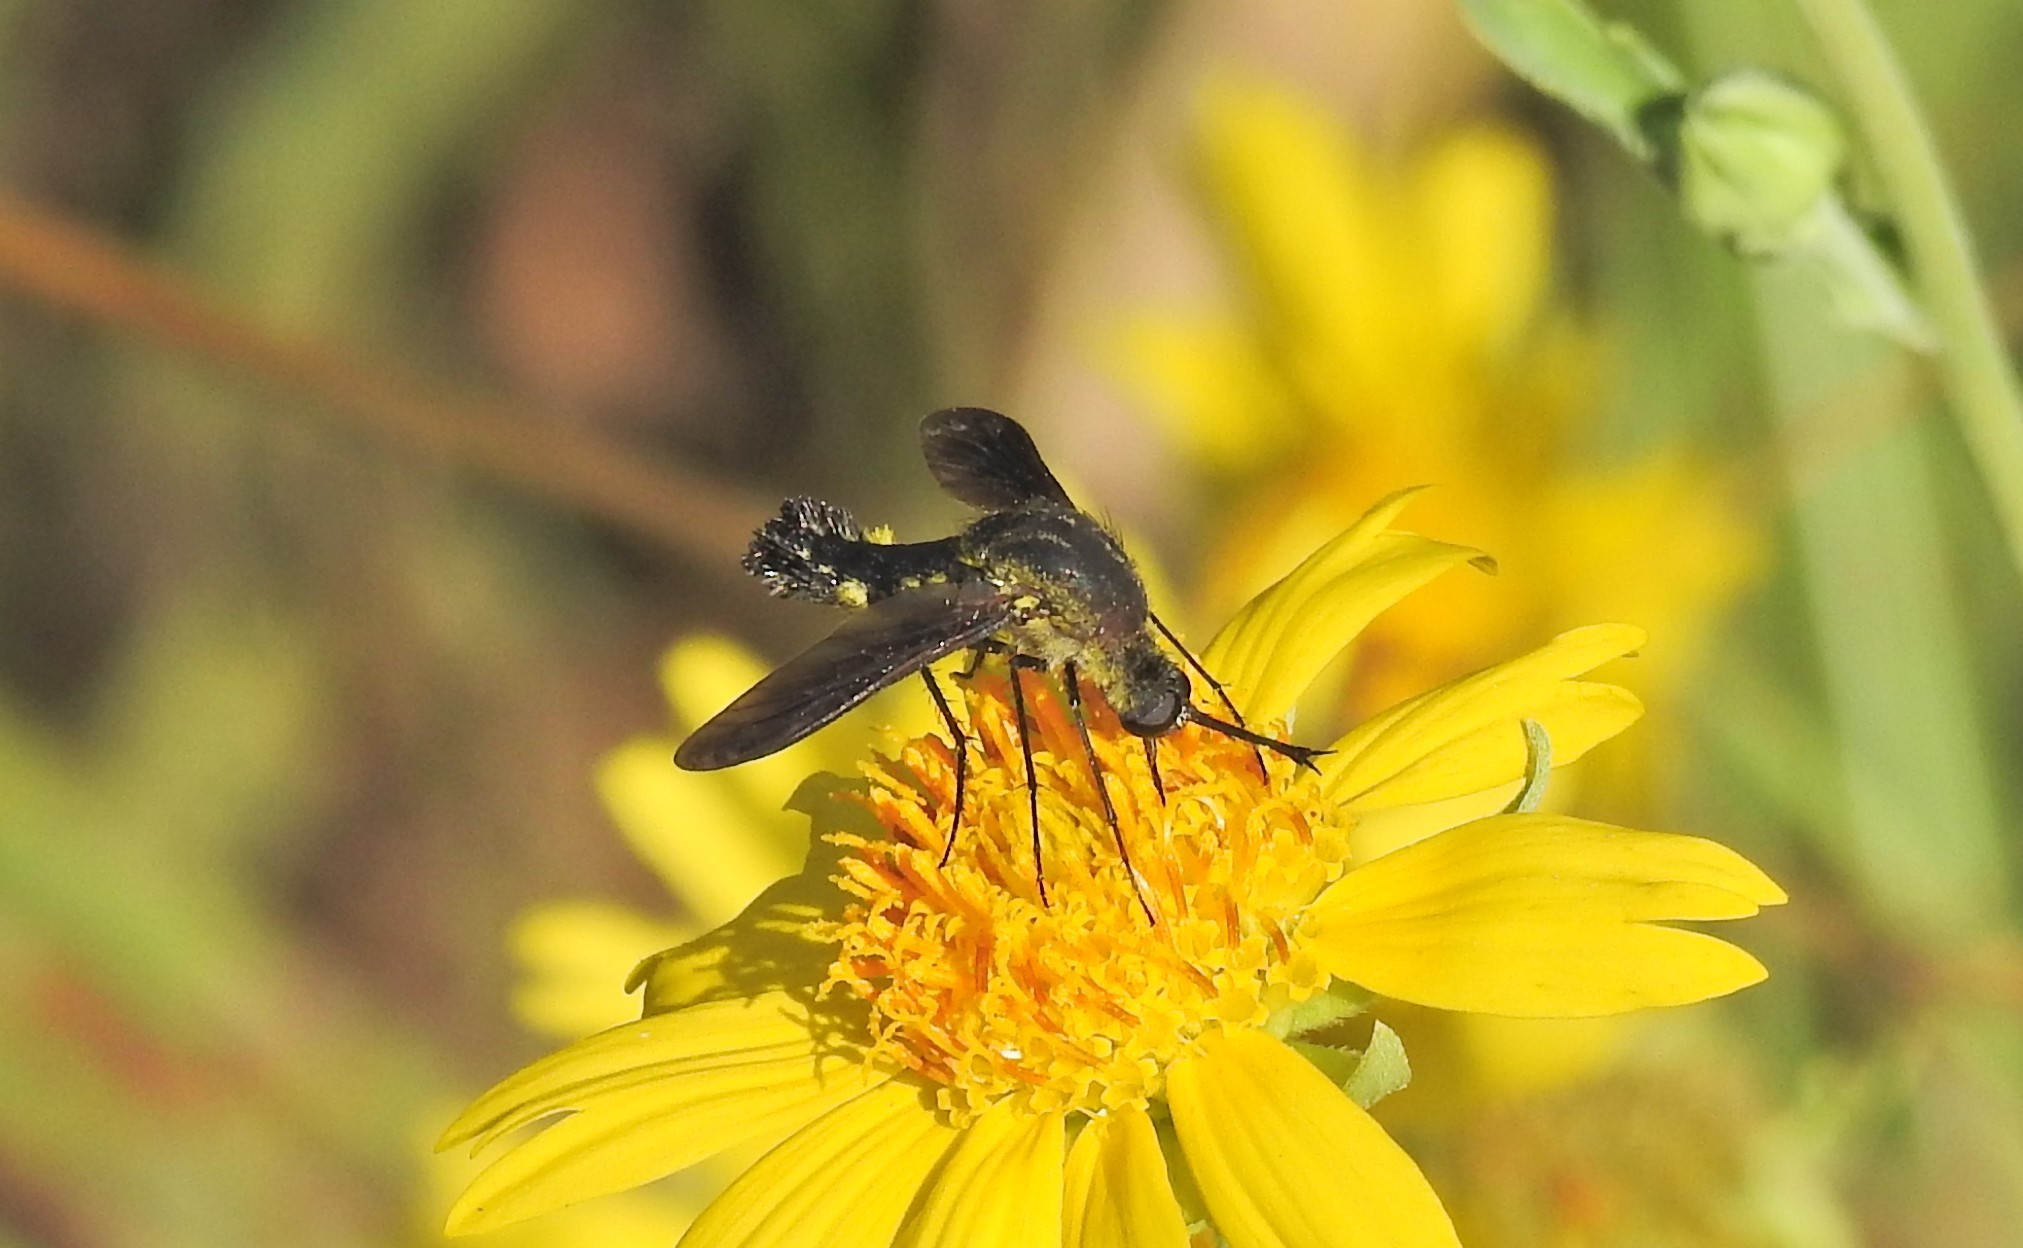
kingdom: Animalia
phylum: Arthropoda
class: Insecta
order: Diptera
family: Bombyliidae
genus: Lepidophora
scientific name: Lepidophora lepidocera
